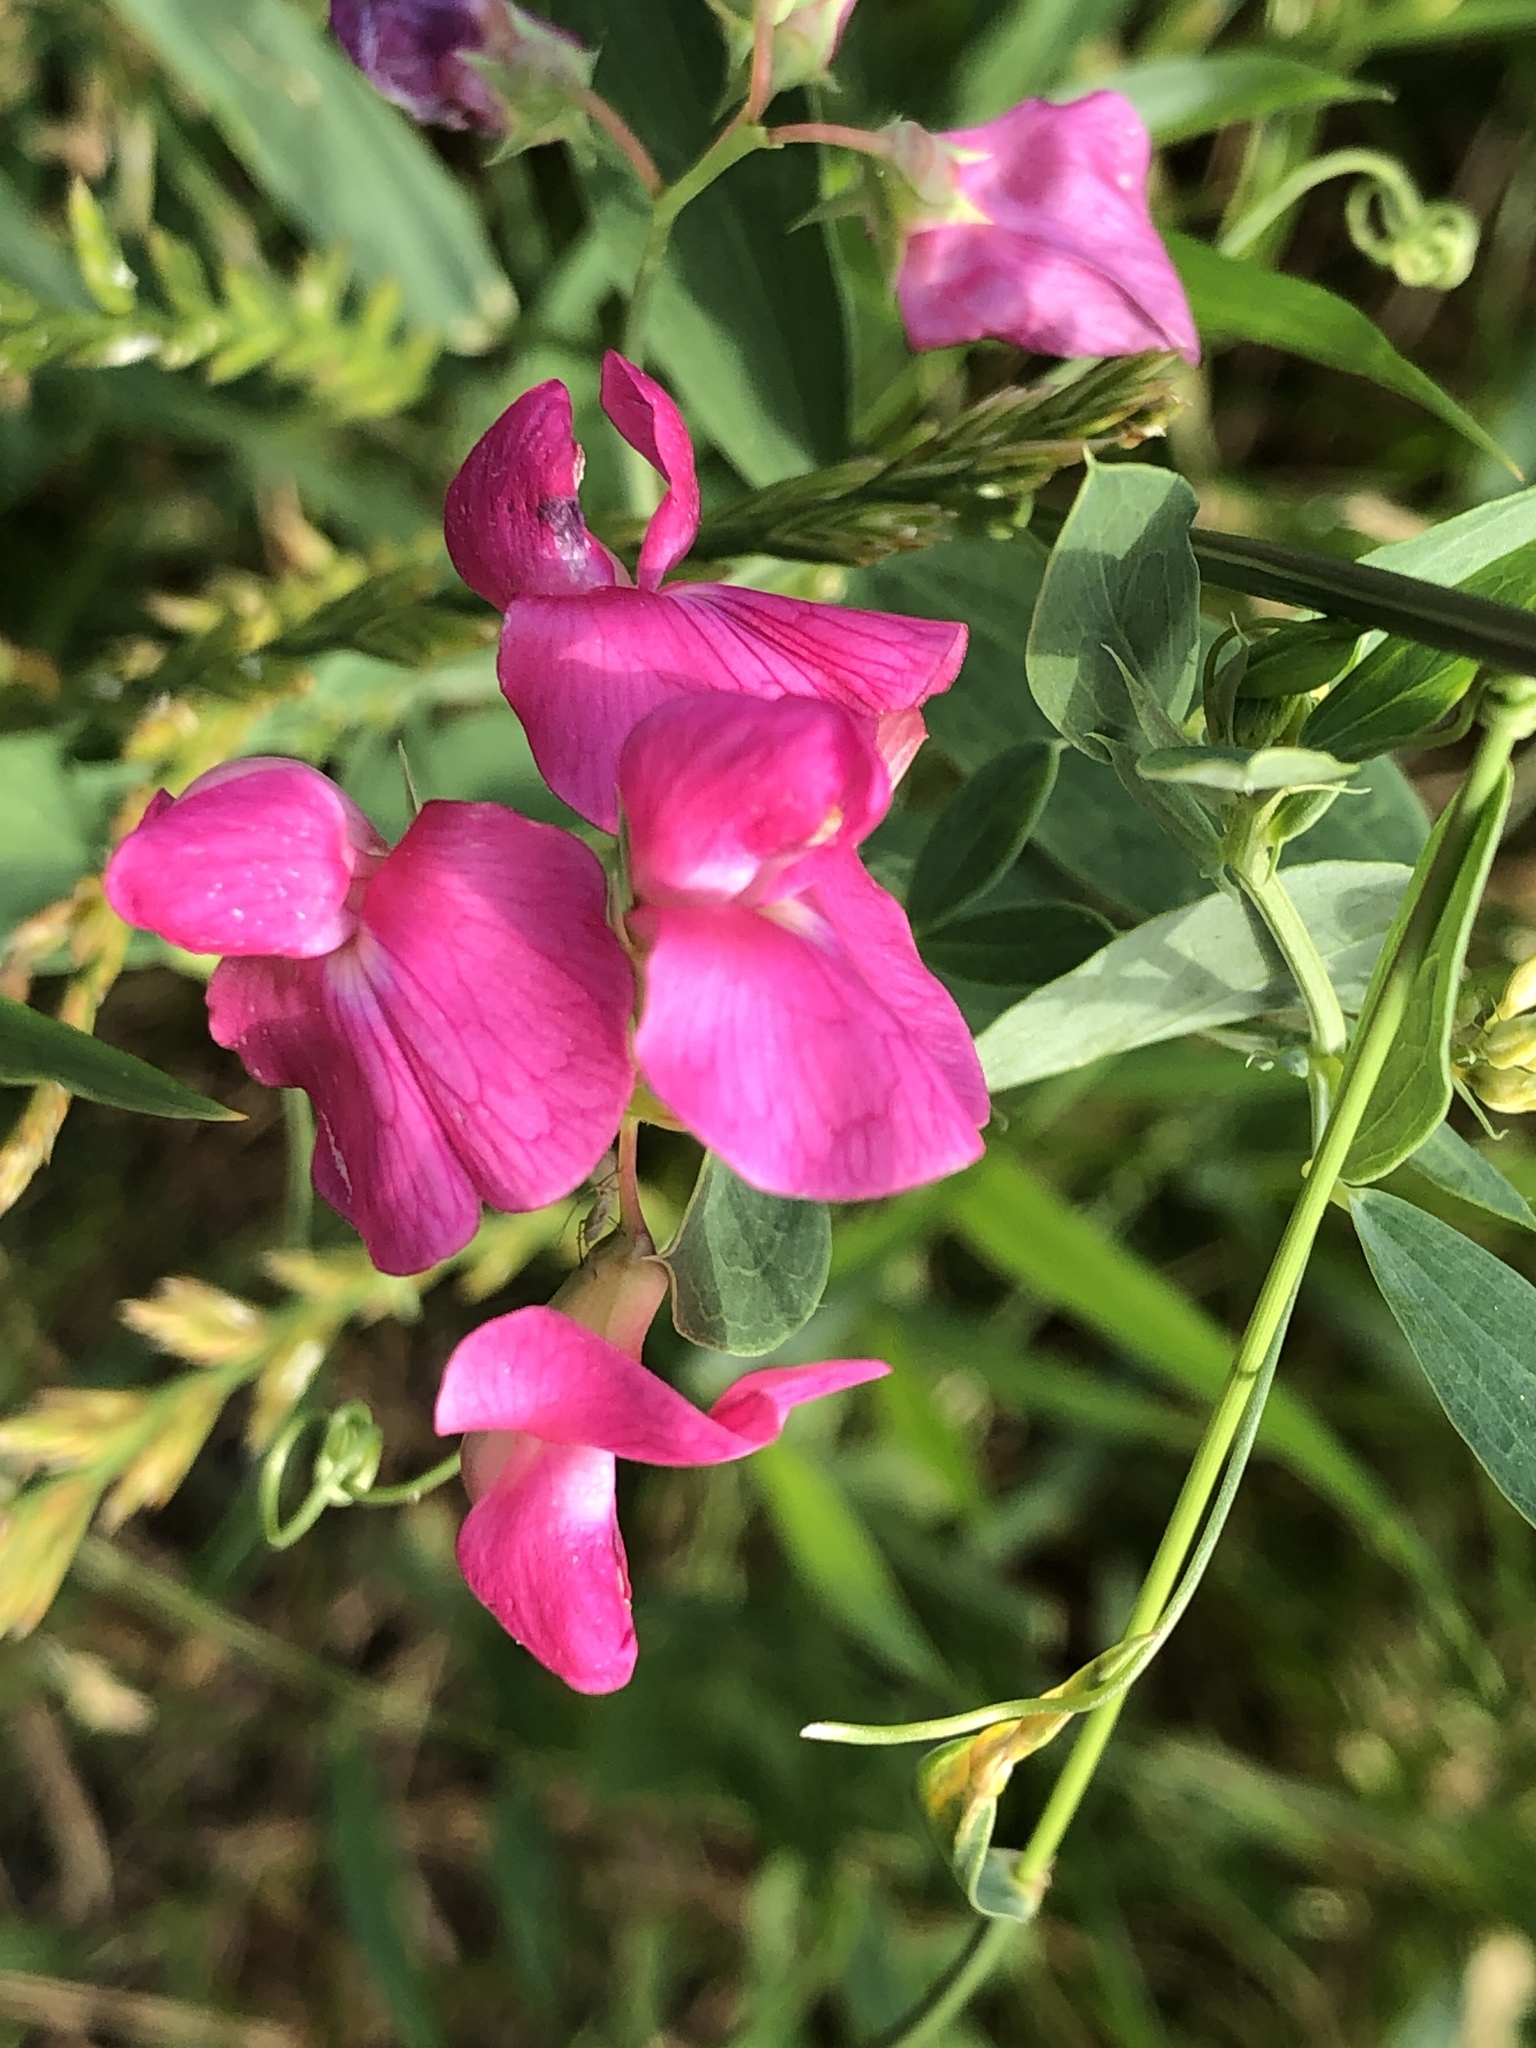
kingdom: Plantae
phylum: Tracheophyta
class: Magnoliopsida
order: Fabales
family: Fabaceae
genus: Lathyrus
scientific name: Lathyrus tuberosus
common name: Tuberous pea
